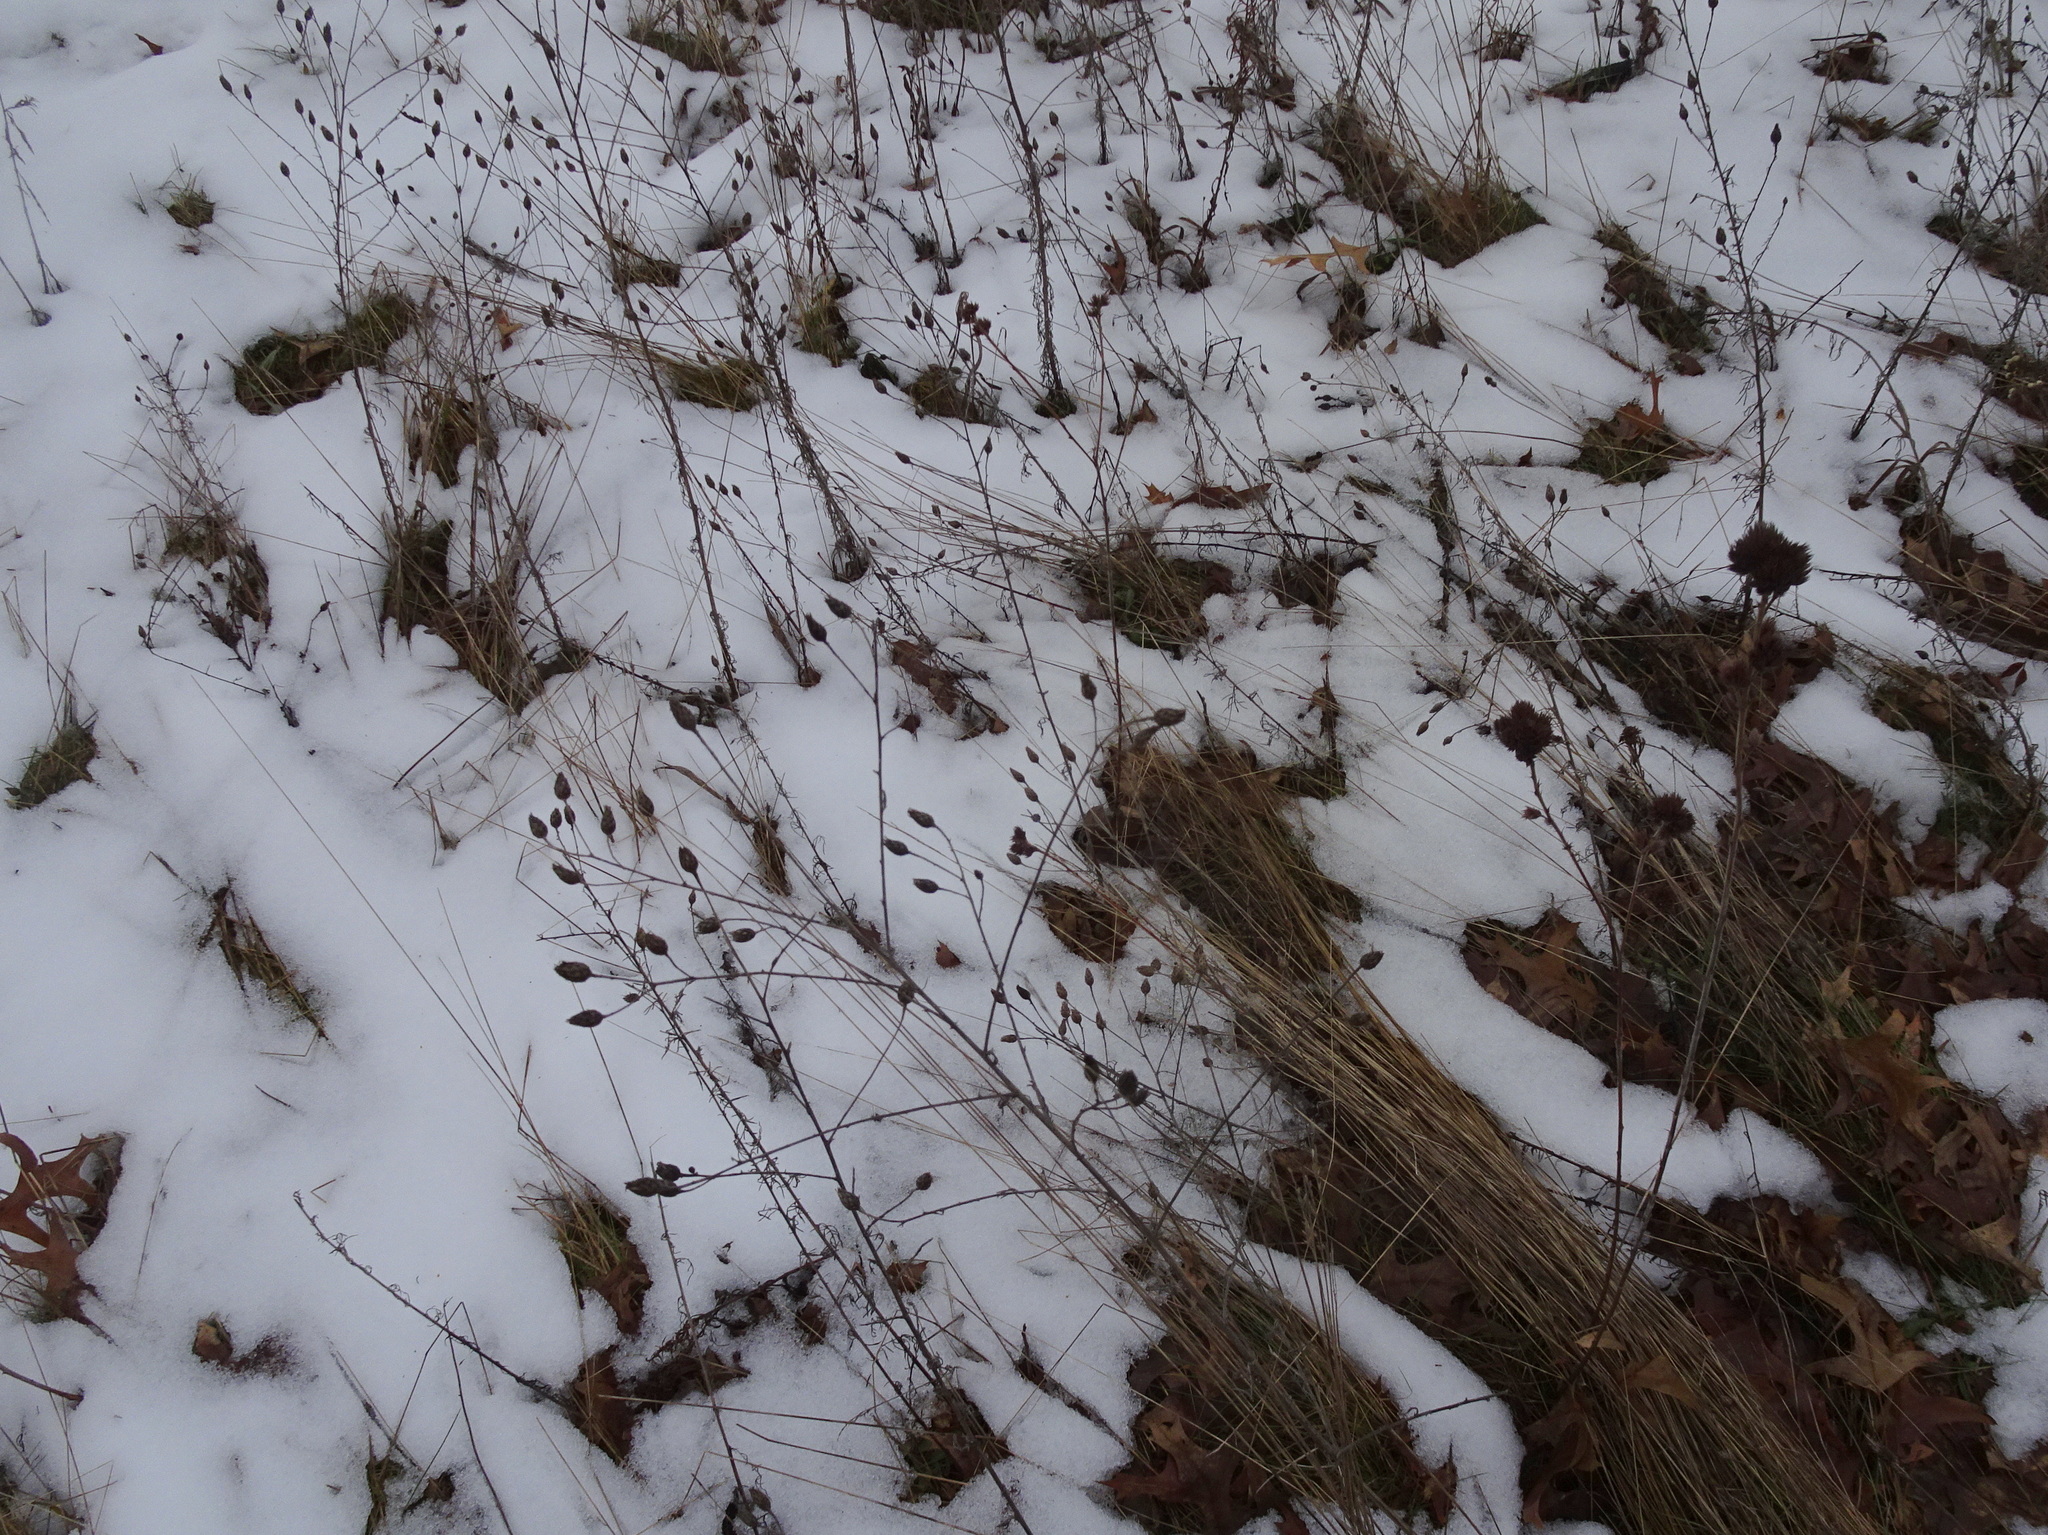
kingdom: Plantae
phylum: Tracheophyta
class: Magnoliopsida
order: Asterales
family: Asteraceae
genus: Centaurea
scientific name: Centaurea stoebe
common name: Spotted knapweed
